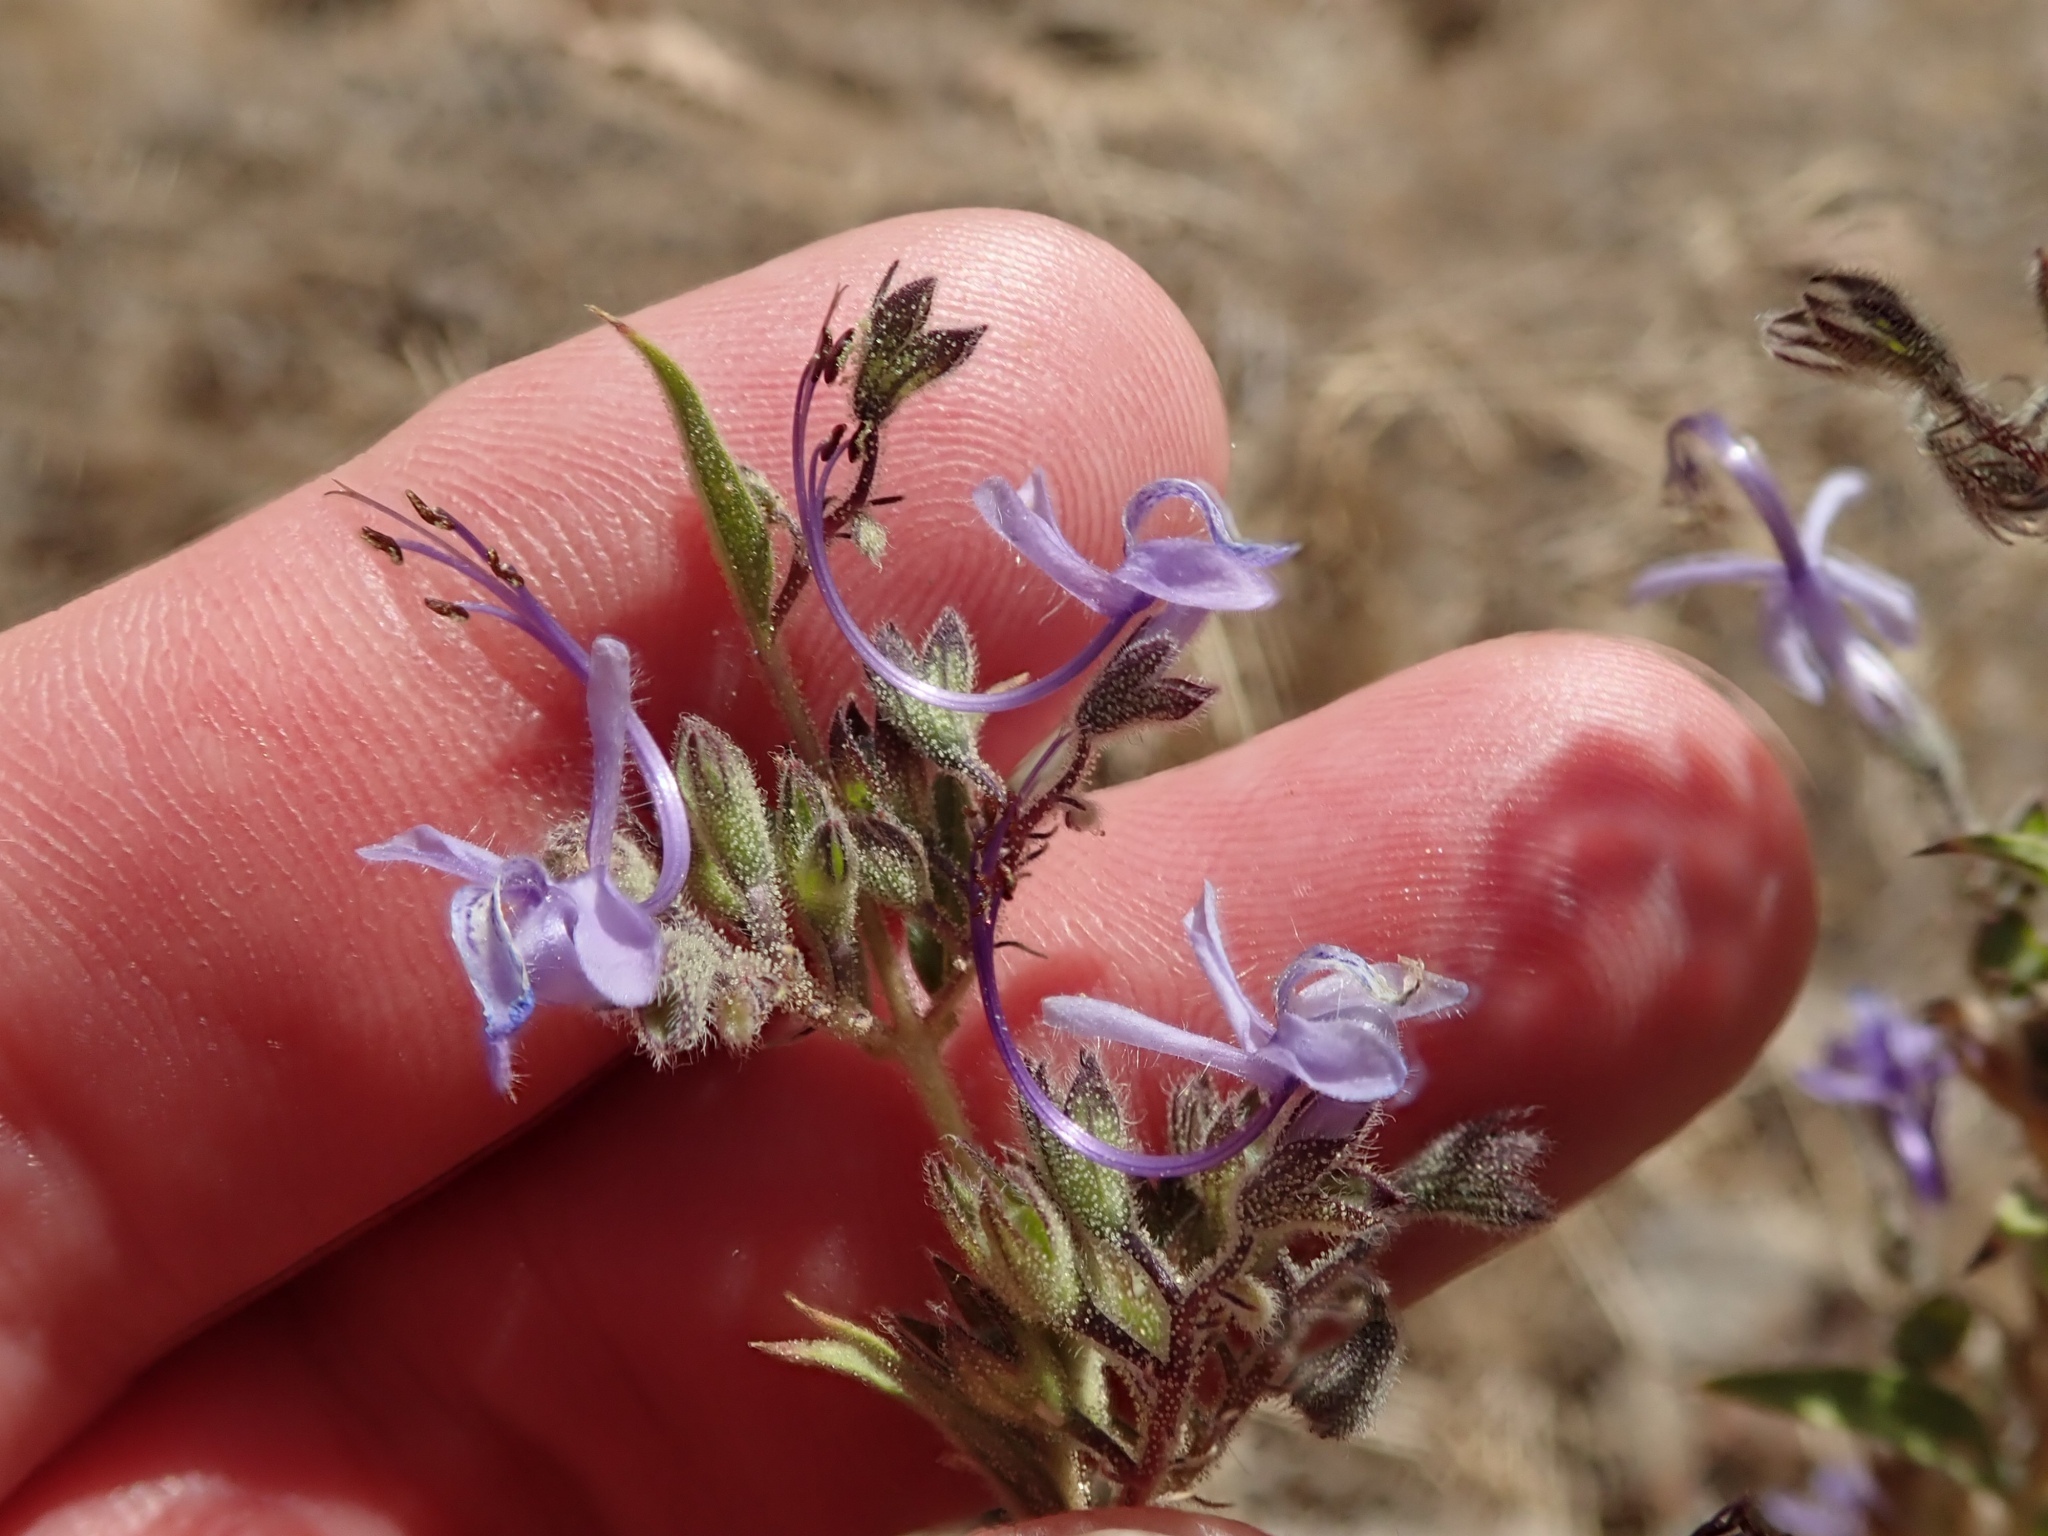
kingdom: Plantae
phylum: Tracheophyta
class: Magnoliopsida
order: Lamiales
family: Lamiaceae
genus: Trichostema
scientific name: Trichostema lanceolatum
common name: Vinegar-weed
